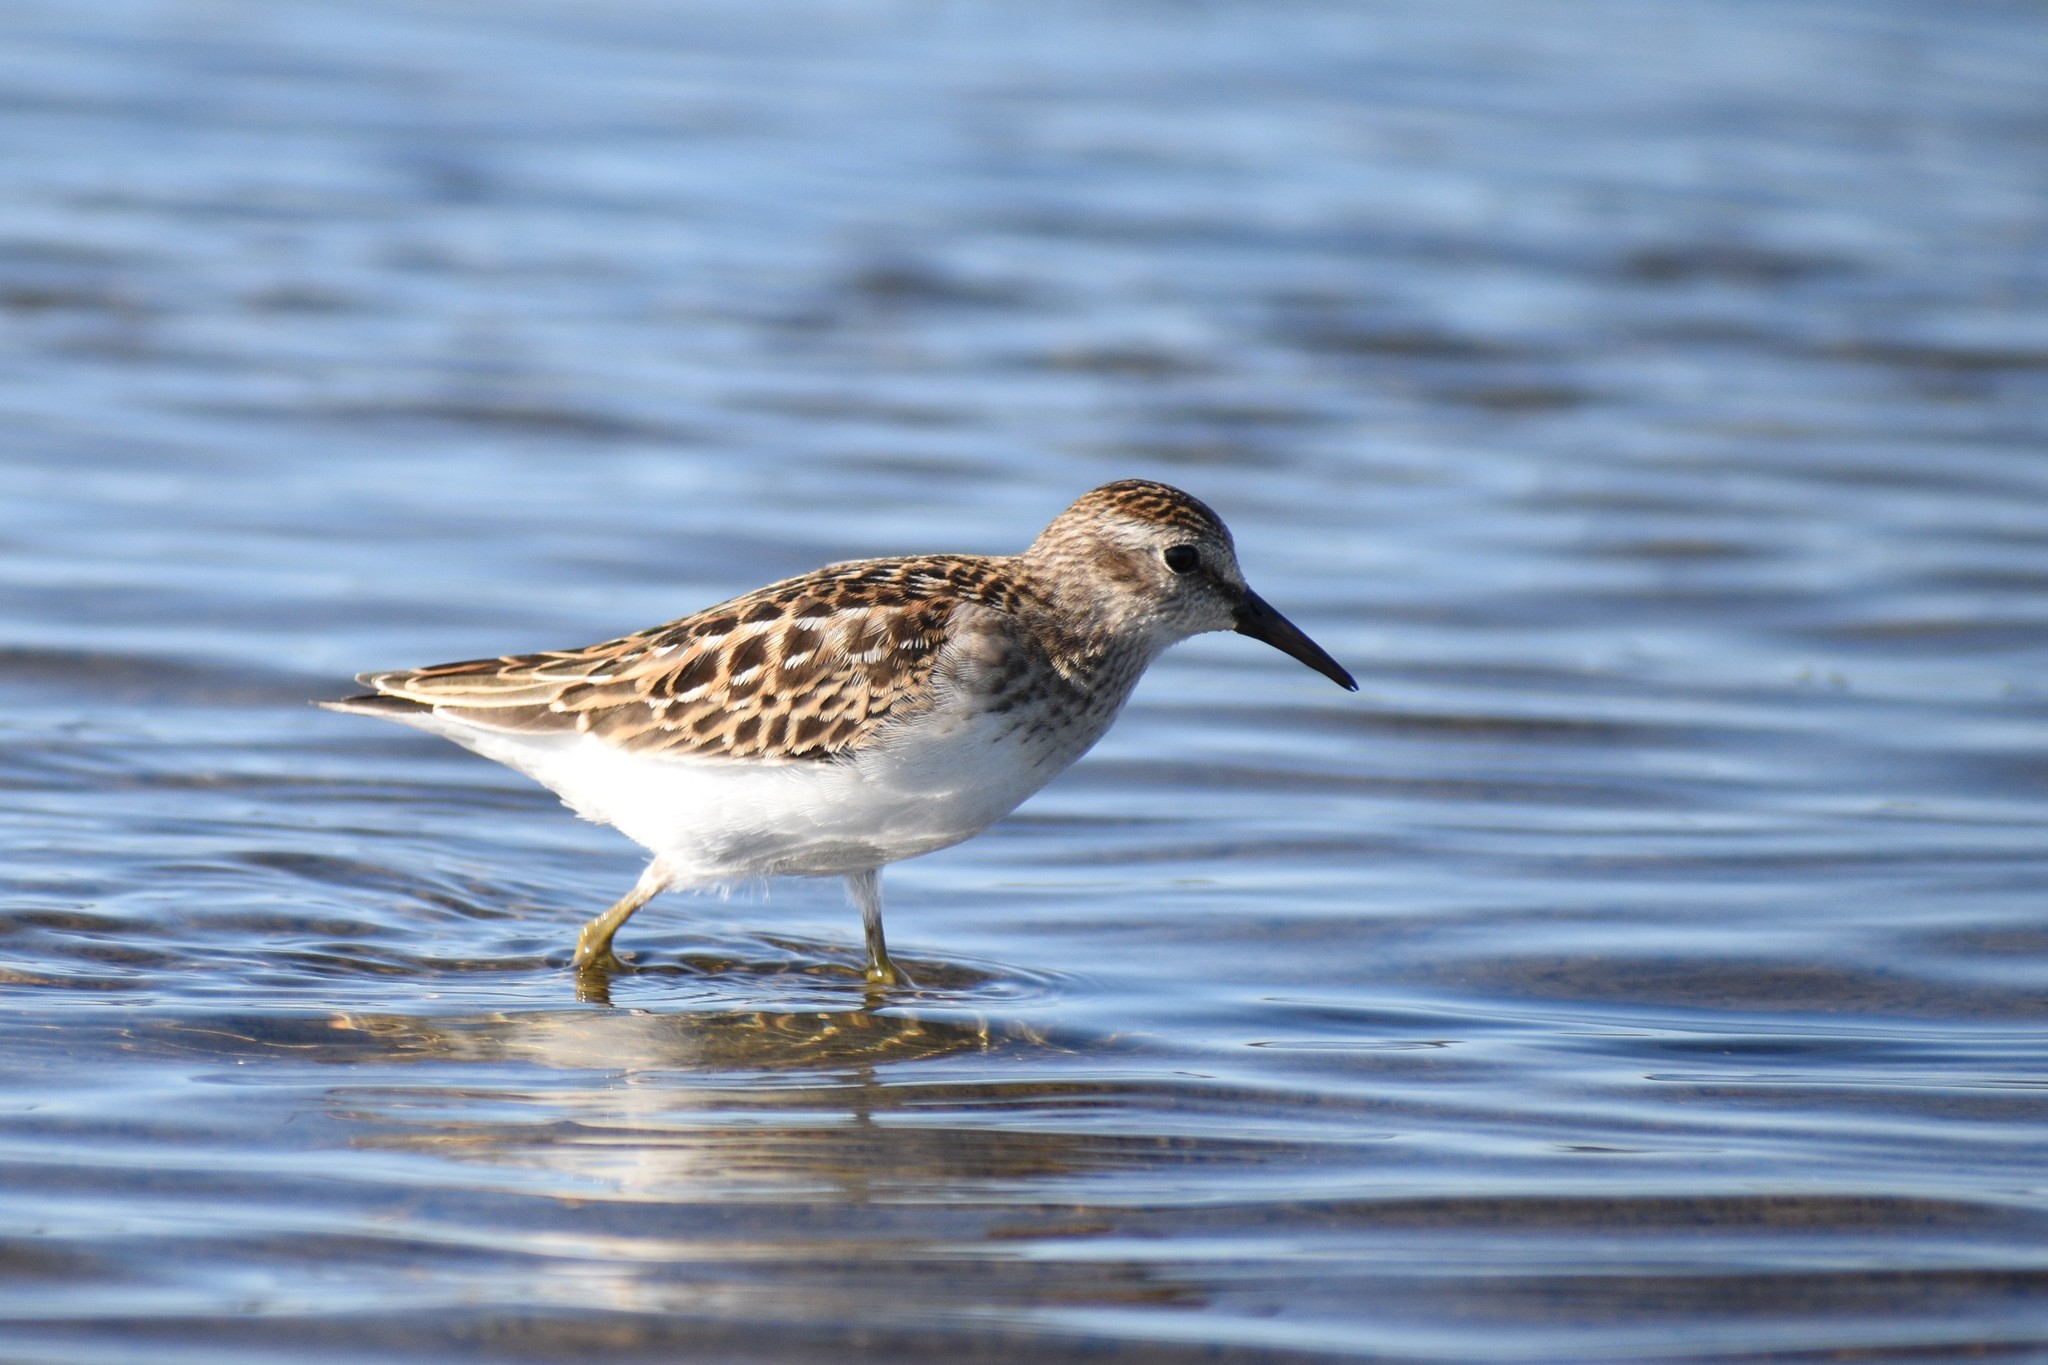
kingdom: Animalia
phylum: Chordata
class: Aves
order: Charadriiformes
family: Scolopacidae
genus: Calidris
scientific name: Calidris minutilla
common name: Least sandpiper
